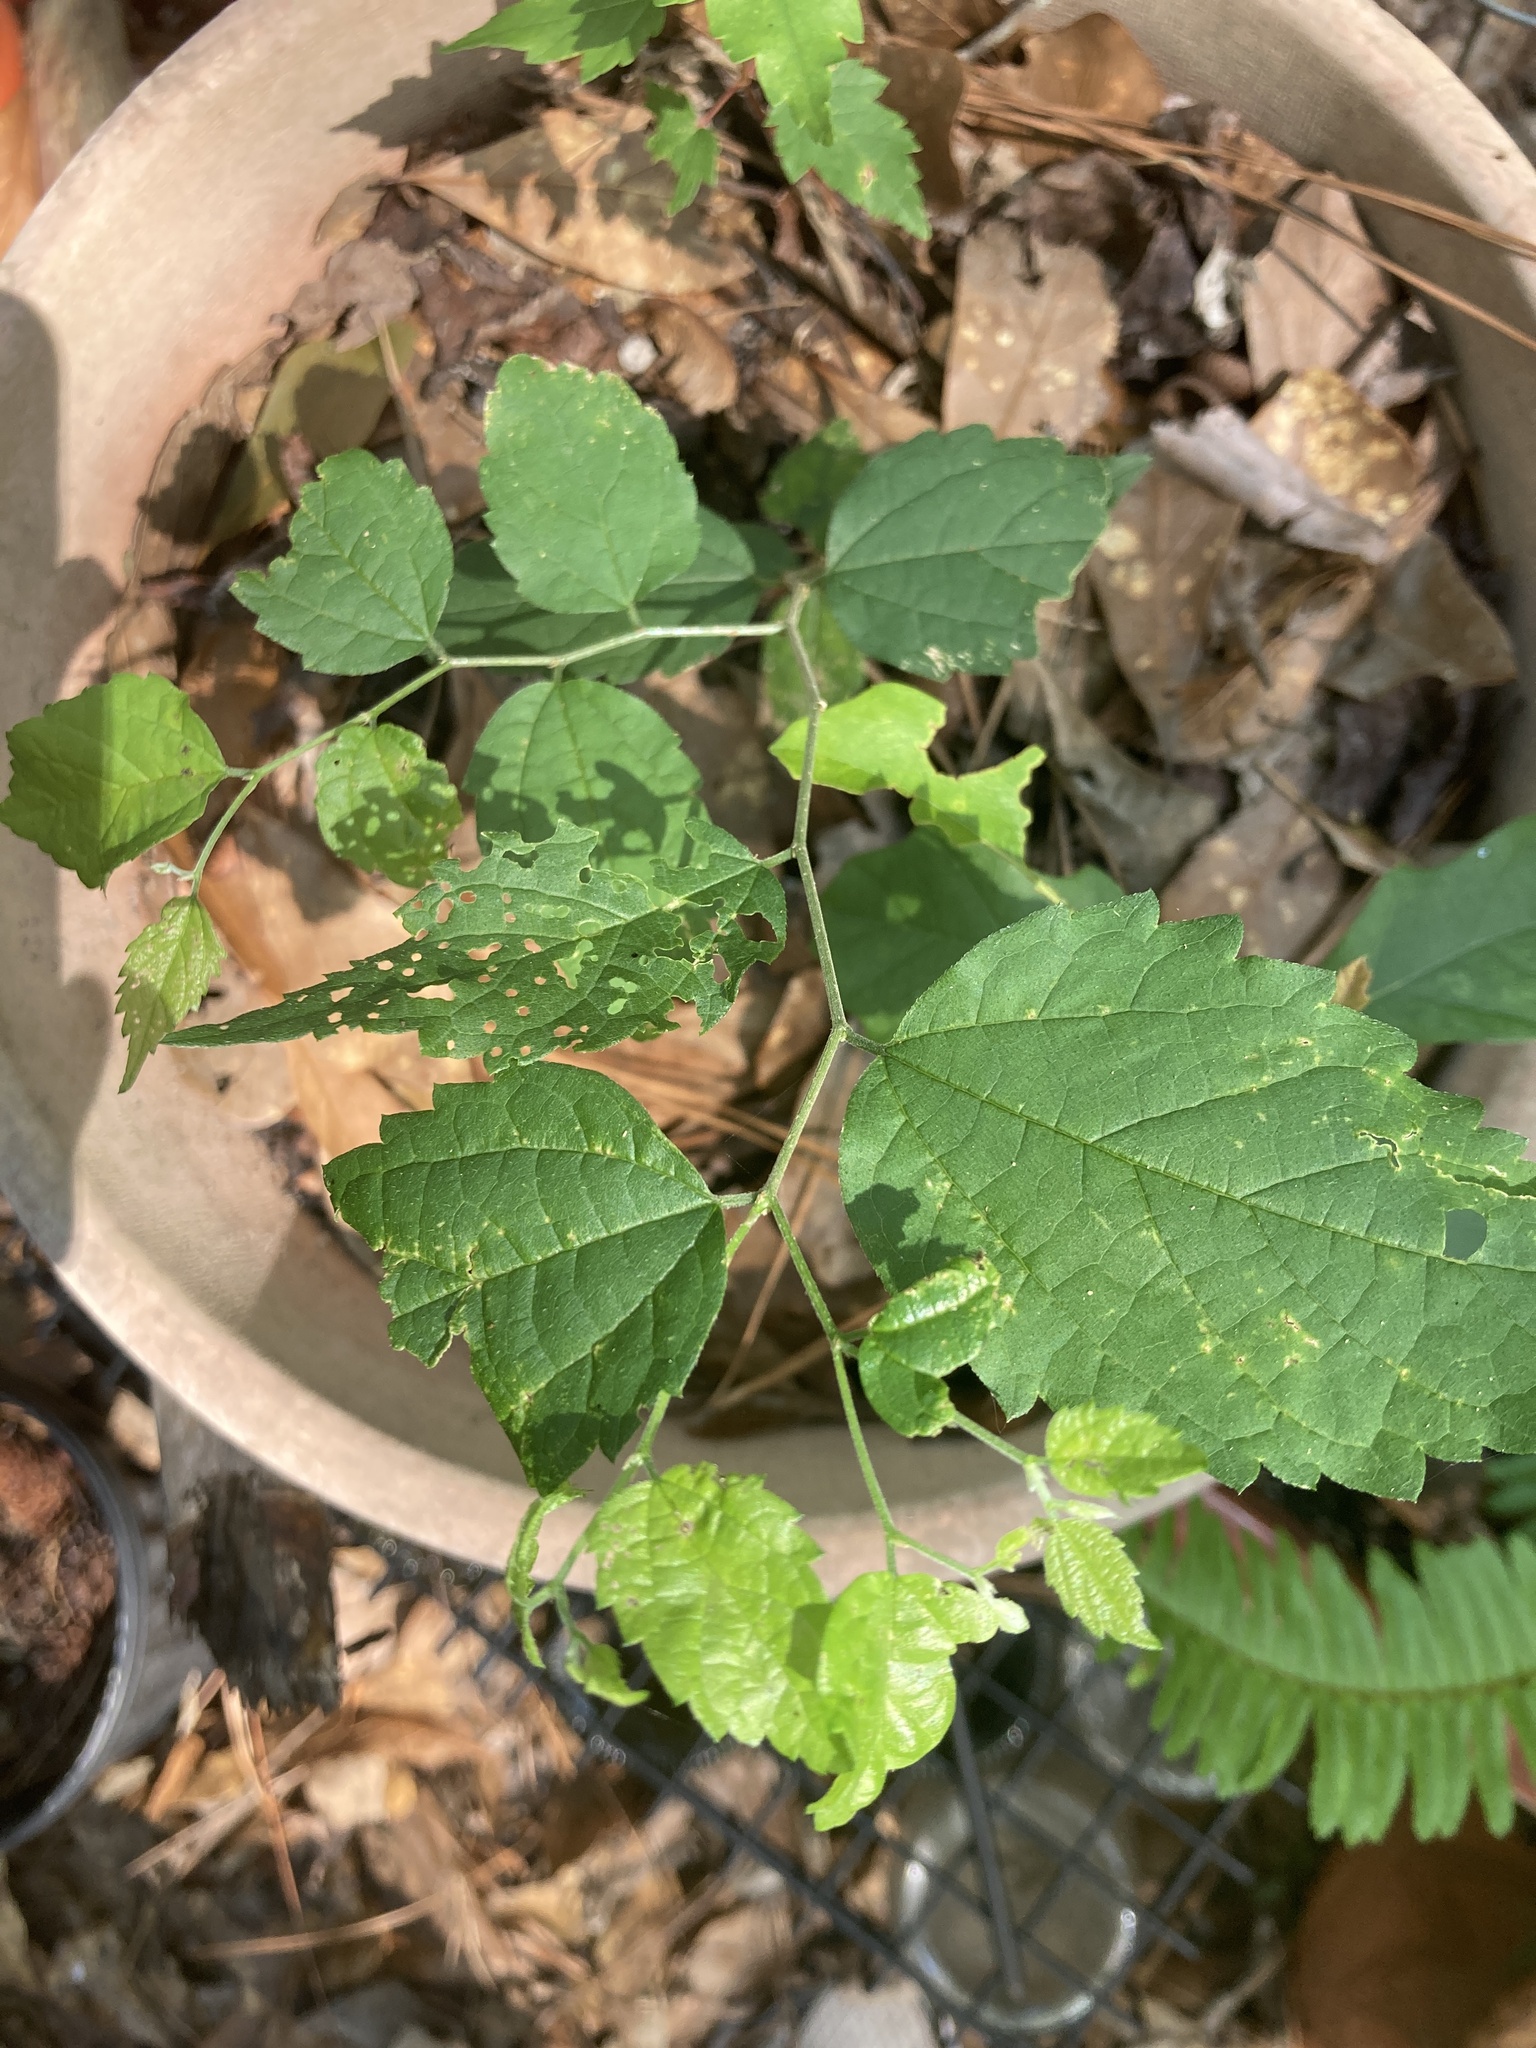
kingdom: Plantae
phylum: Tracheophyta
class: Magnoliopsida
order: Rosales
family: Cannabaceae
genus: Celtis
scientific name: Celtis laevigata
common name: Sugarberry
